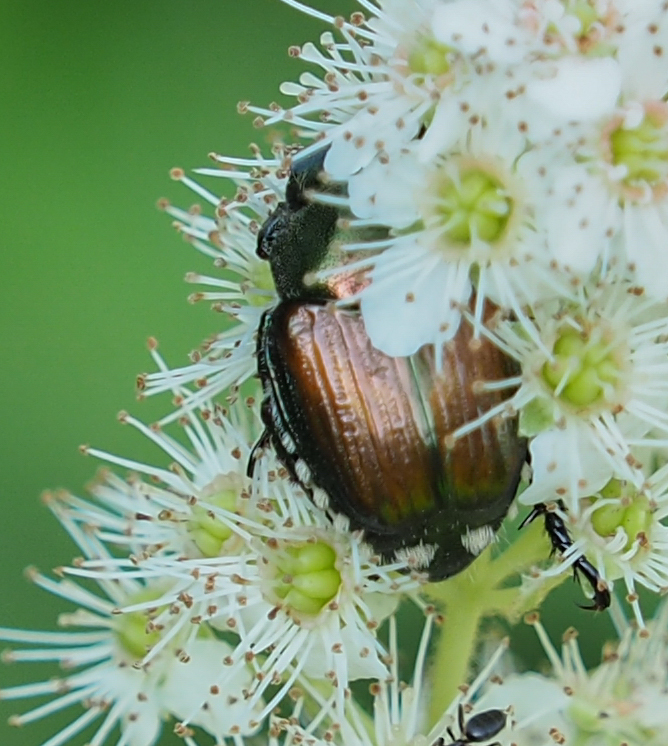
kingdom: Animalia
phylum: Arthropoda
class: Insecta
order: Coleoptera
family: Scarabaeidae
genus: Popillia
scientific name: Popillia japonica
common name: Japanese beetle
